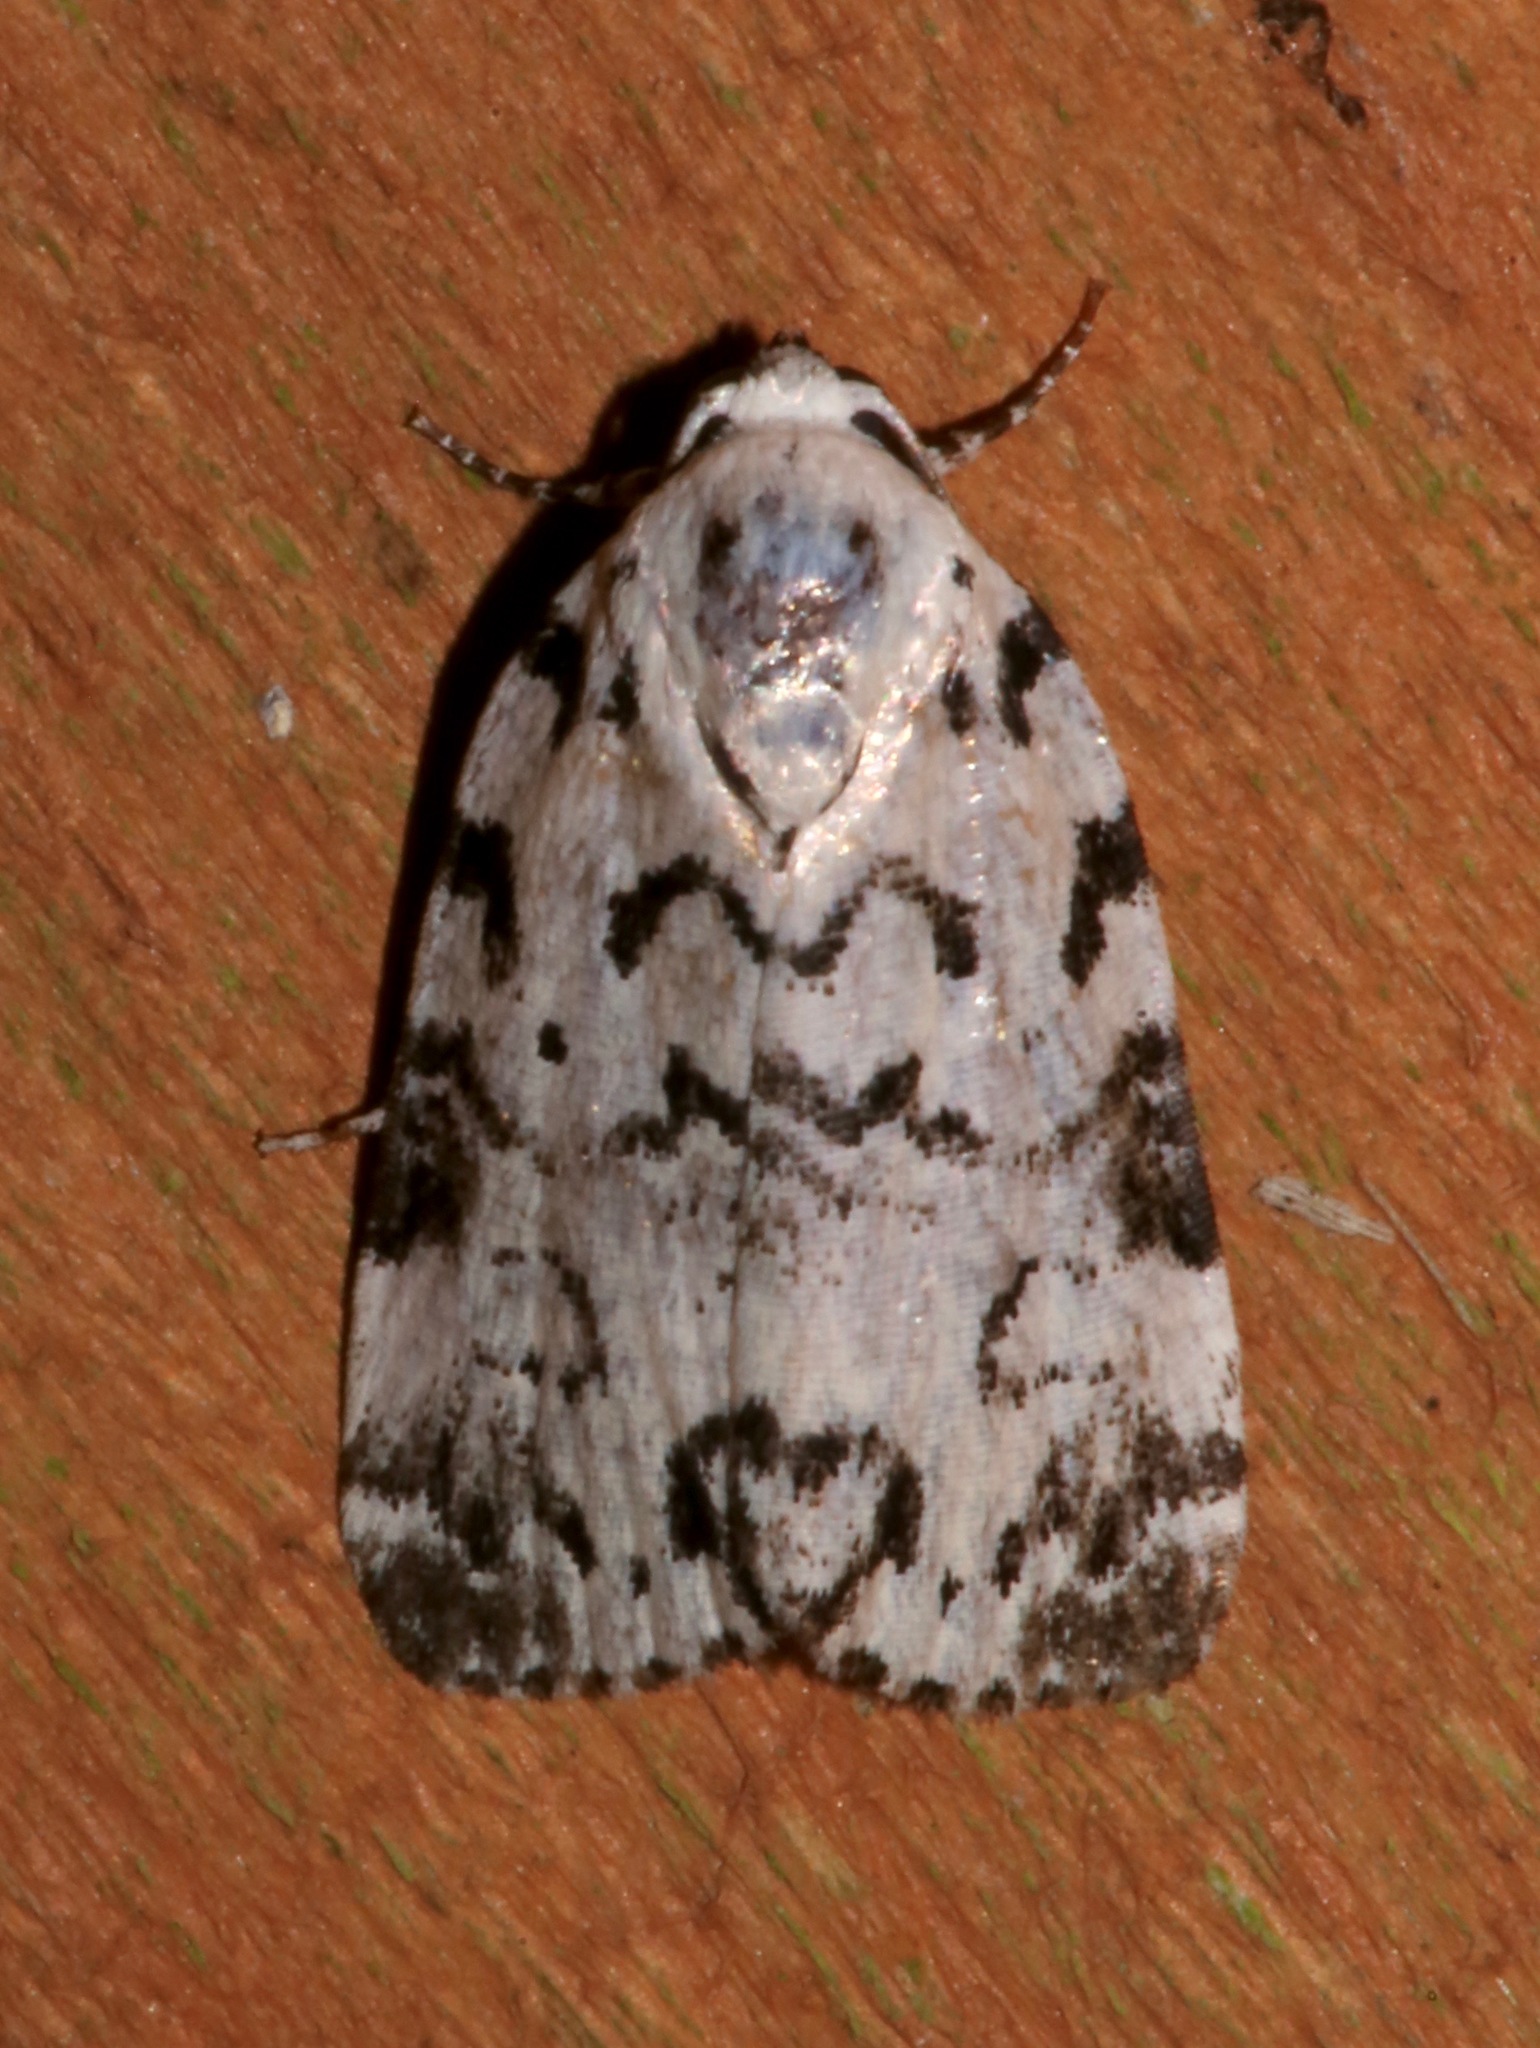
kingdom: Animalia
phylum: Arthropoda
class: Insecta
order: Lepidoptera
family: Noctuidae
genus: Polygrammate
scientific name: Polygrammate hebraeicum
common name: Hebrew moth
